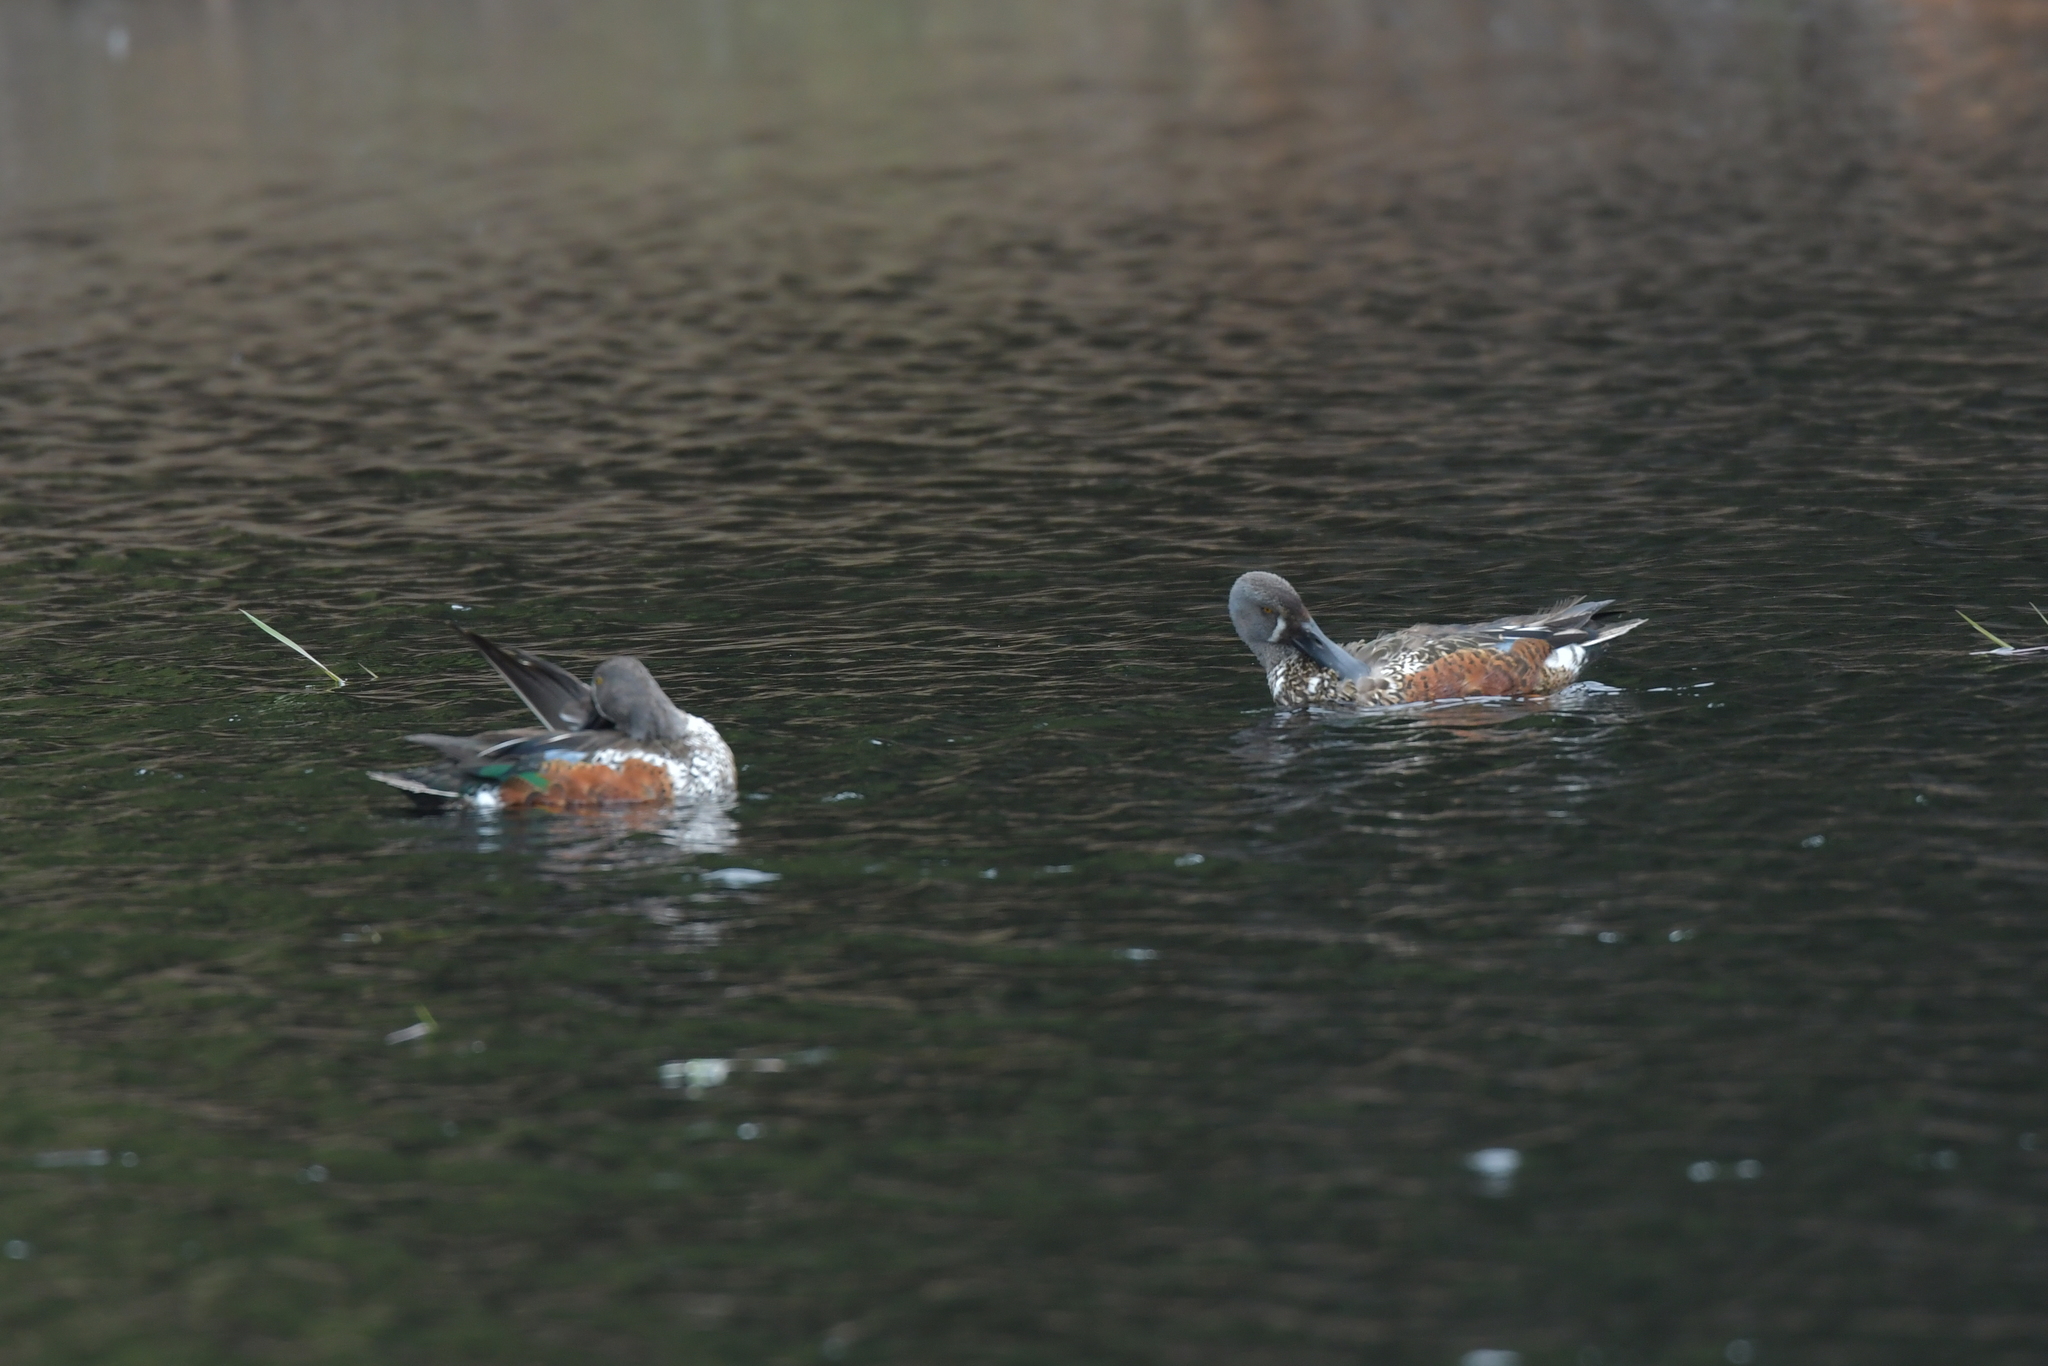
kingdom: Animalia
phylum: Chordata
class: Aves
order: Anseriformes
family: Anatidae
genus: Spatula
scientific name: Spatula rhynchotis
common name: Australian shoveler
